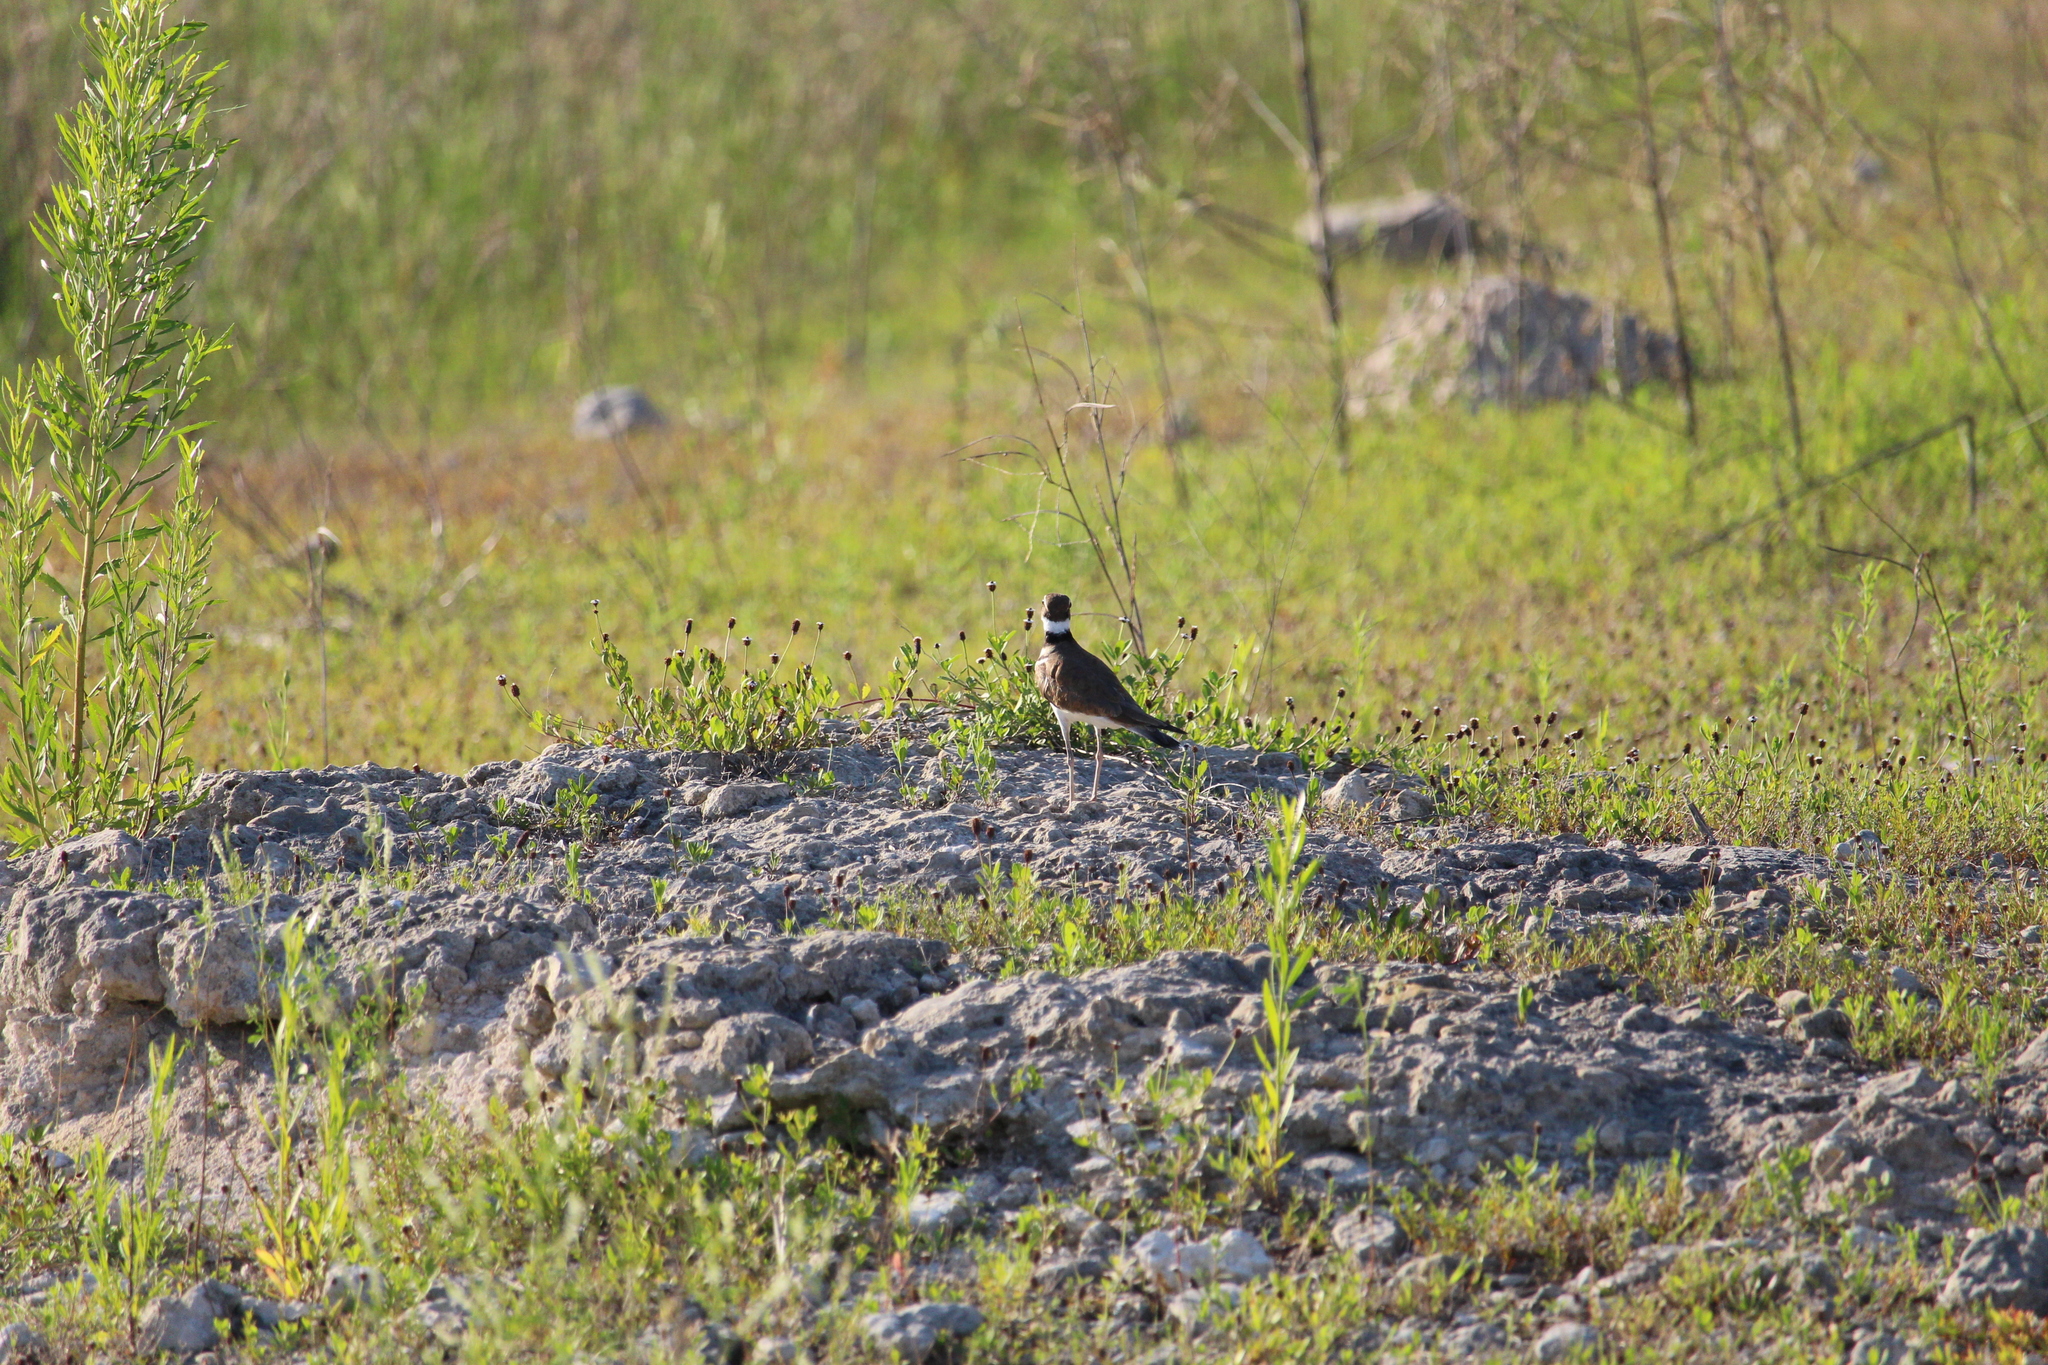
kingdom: Animalia
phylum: Chordata
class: Aves
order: Charadriiformes
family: Charadriidae
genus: Charadrius
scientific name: Charadrius vociferus
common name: Killdeer
